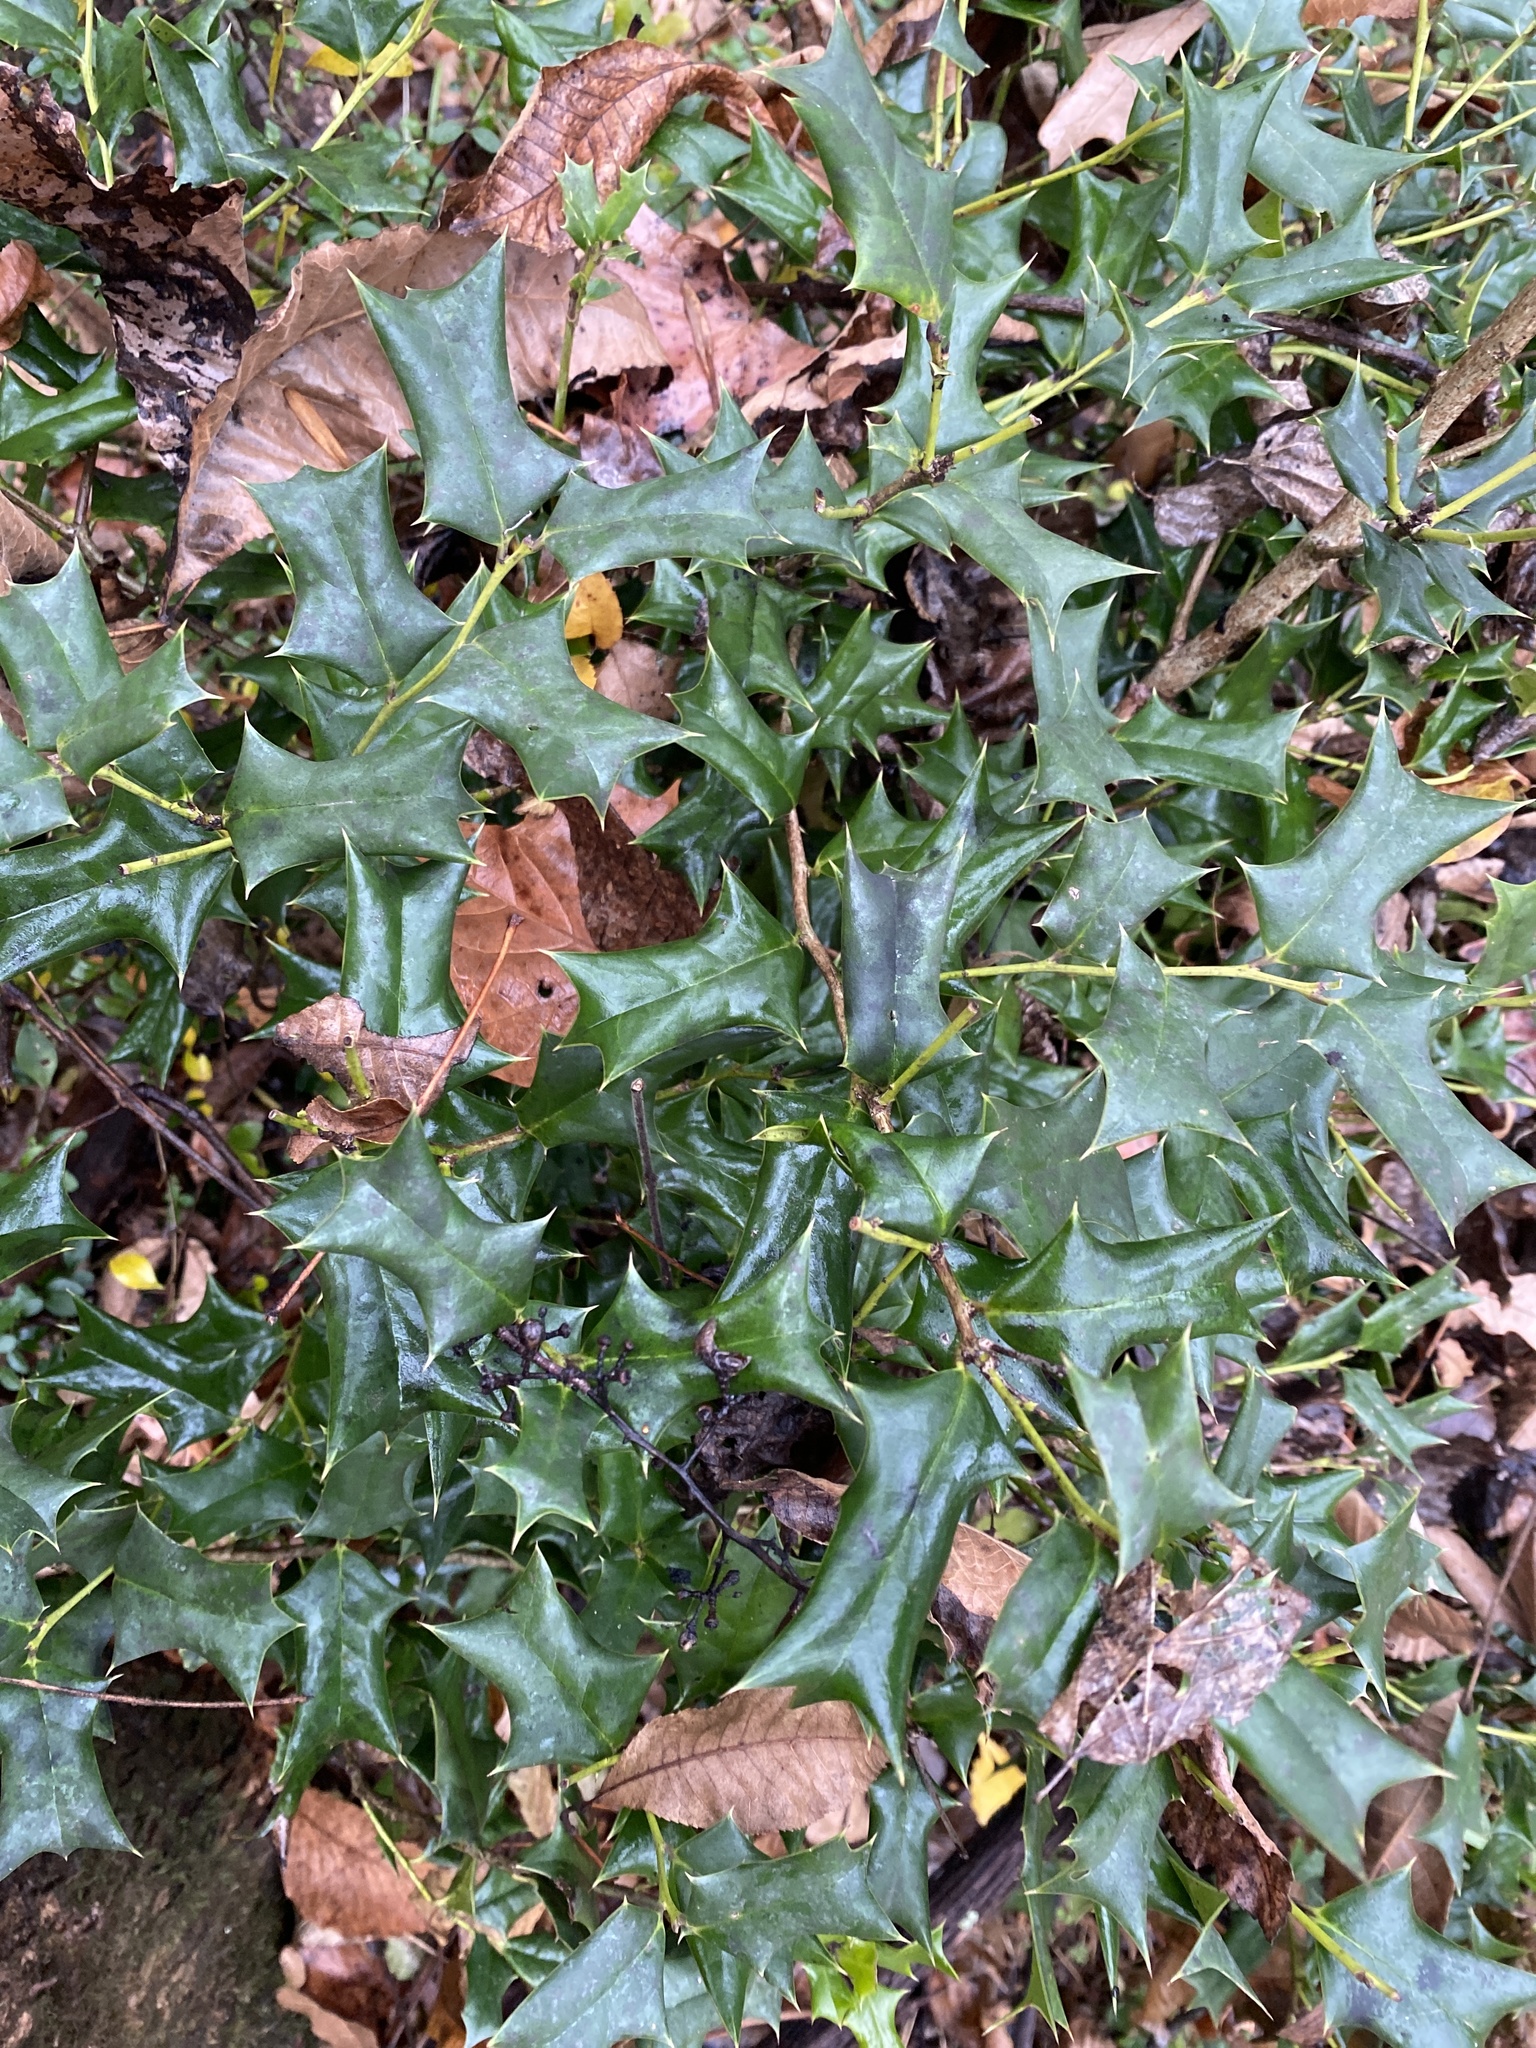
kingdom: Plantae
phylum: Tracheophyta
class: Magnoliopsida
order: Aquifoliales
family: Aquifoliaceae
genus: Ilex
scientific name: Ilex cornuta
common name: Chinese holly
